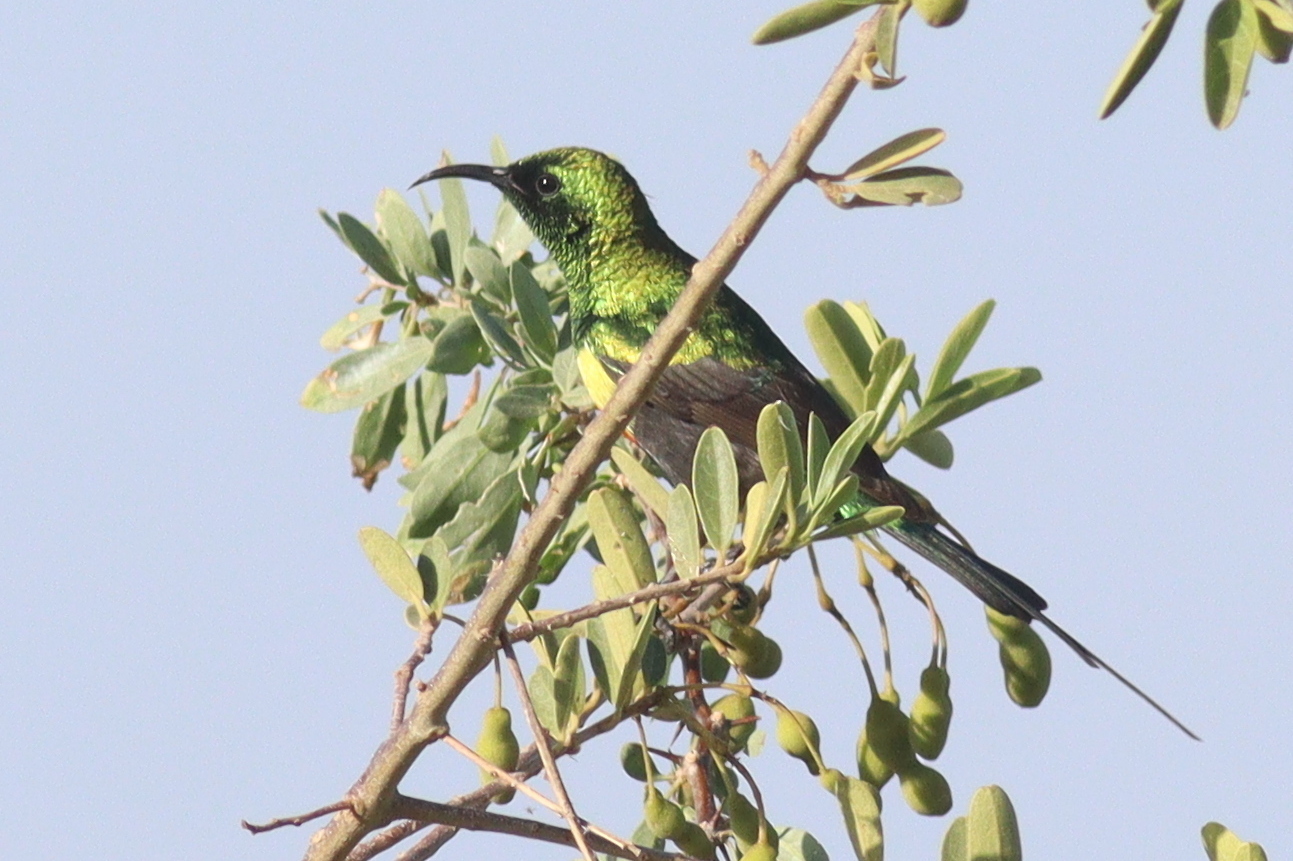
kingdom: Animalia
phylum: Chordata
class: Aves
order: Passeriformes
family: Nectariniidae
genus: Cinnyris
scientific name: Cinnyris pulchellus
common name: Beautiful sunbird
